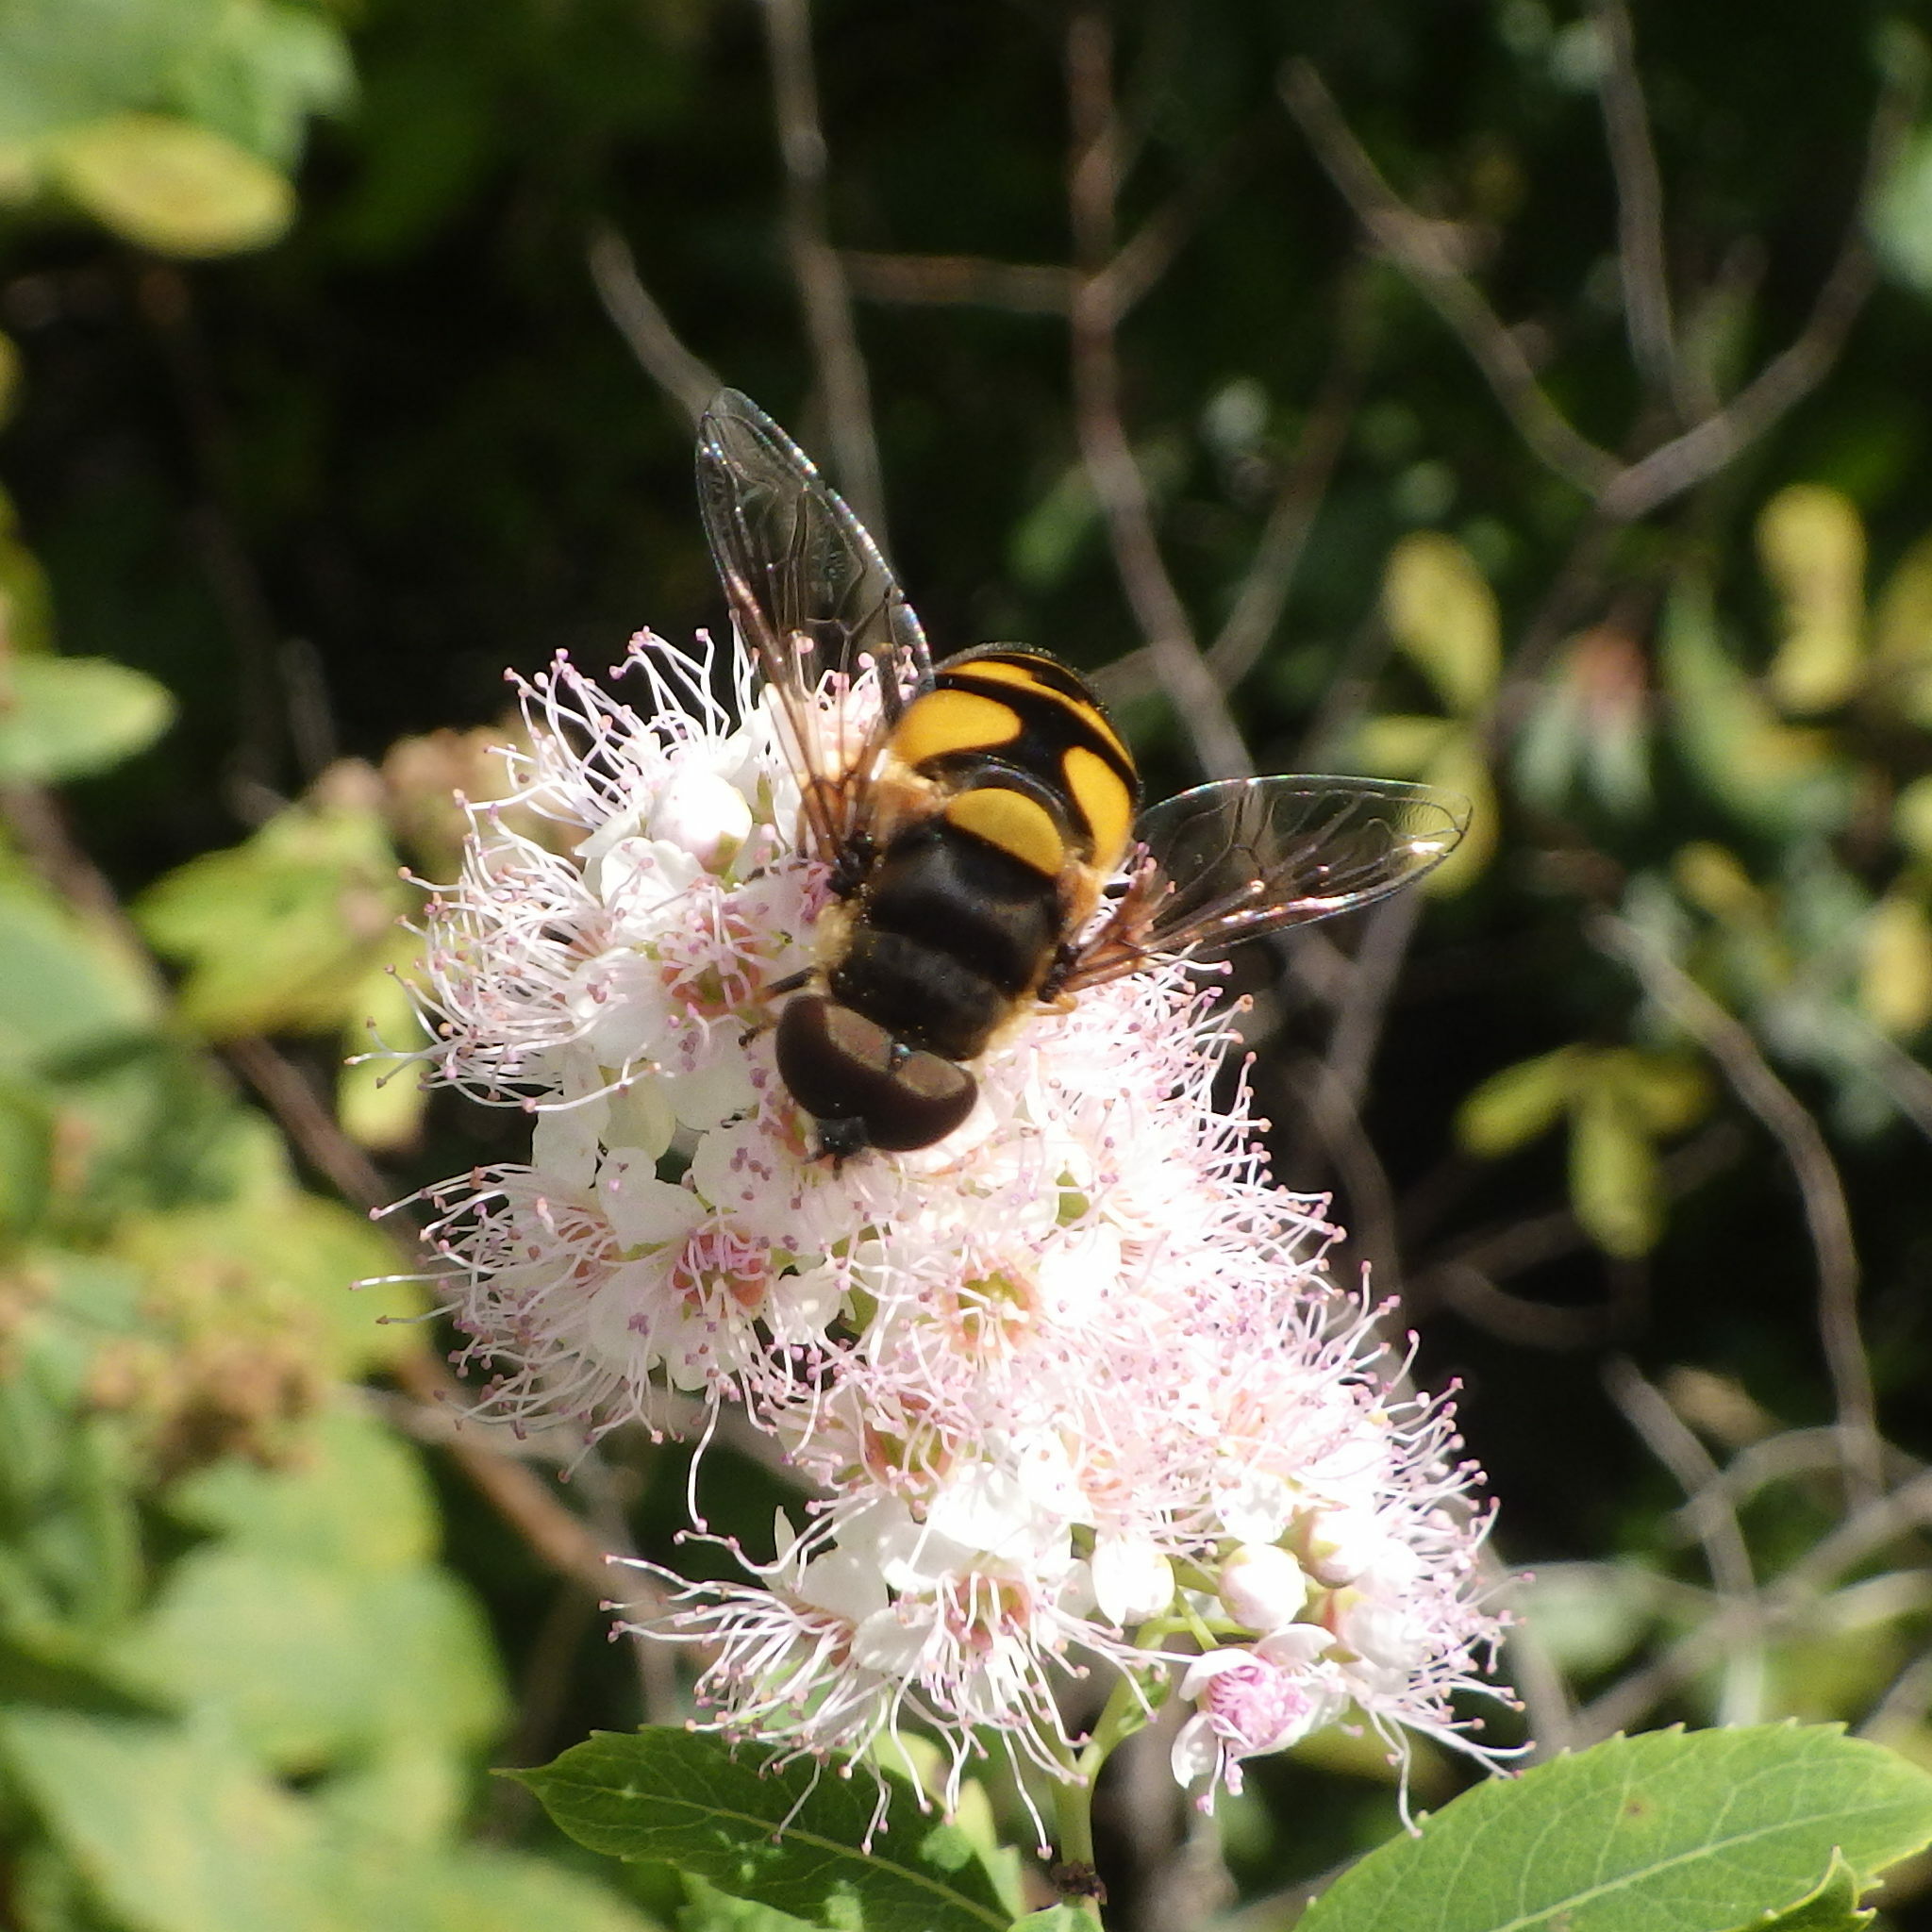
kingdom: Animalia
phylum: Arthropoda
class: Insecta
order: Diptera
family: Syrphidae
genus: Eristalis
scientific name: Eristalis transversa
